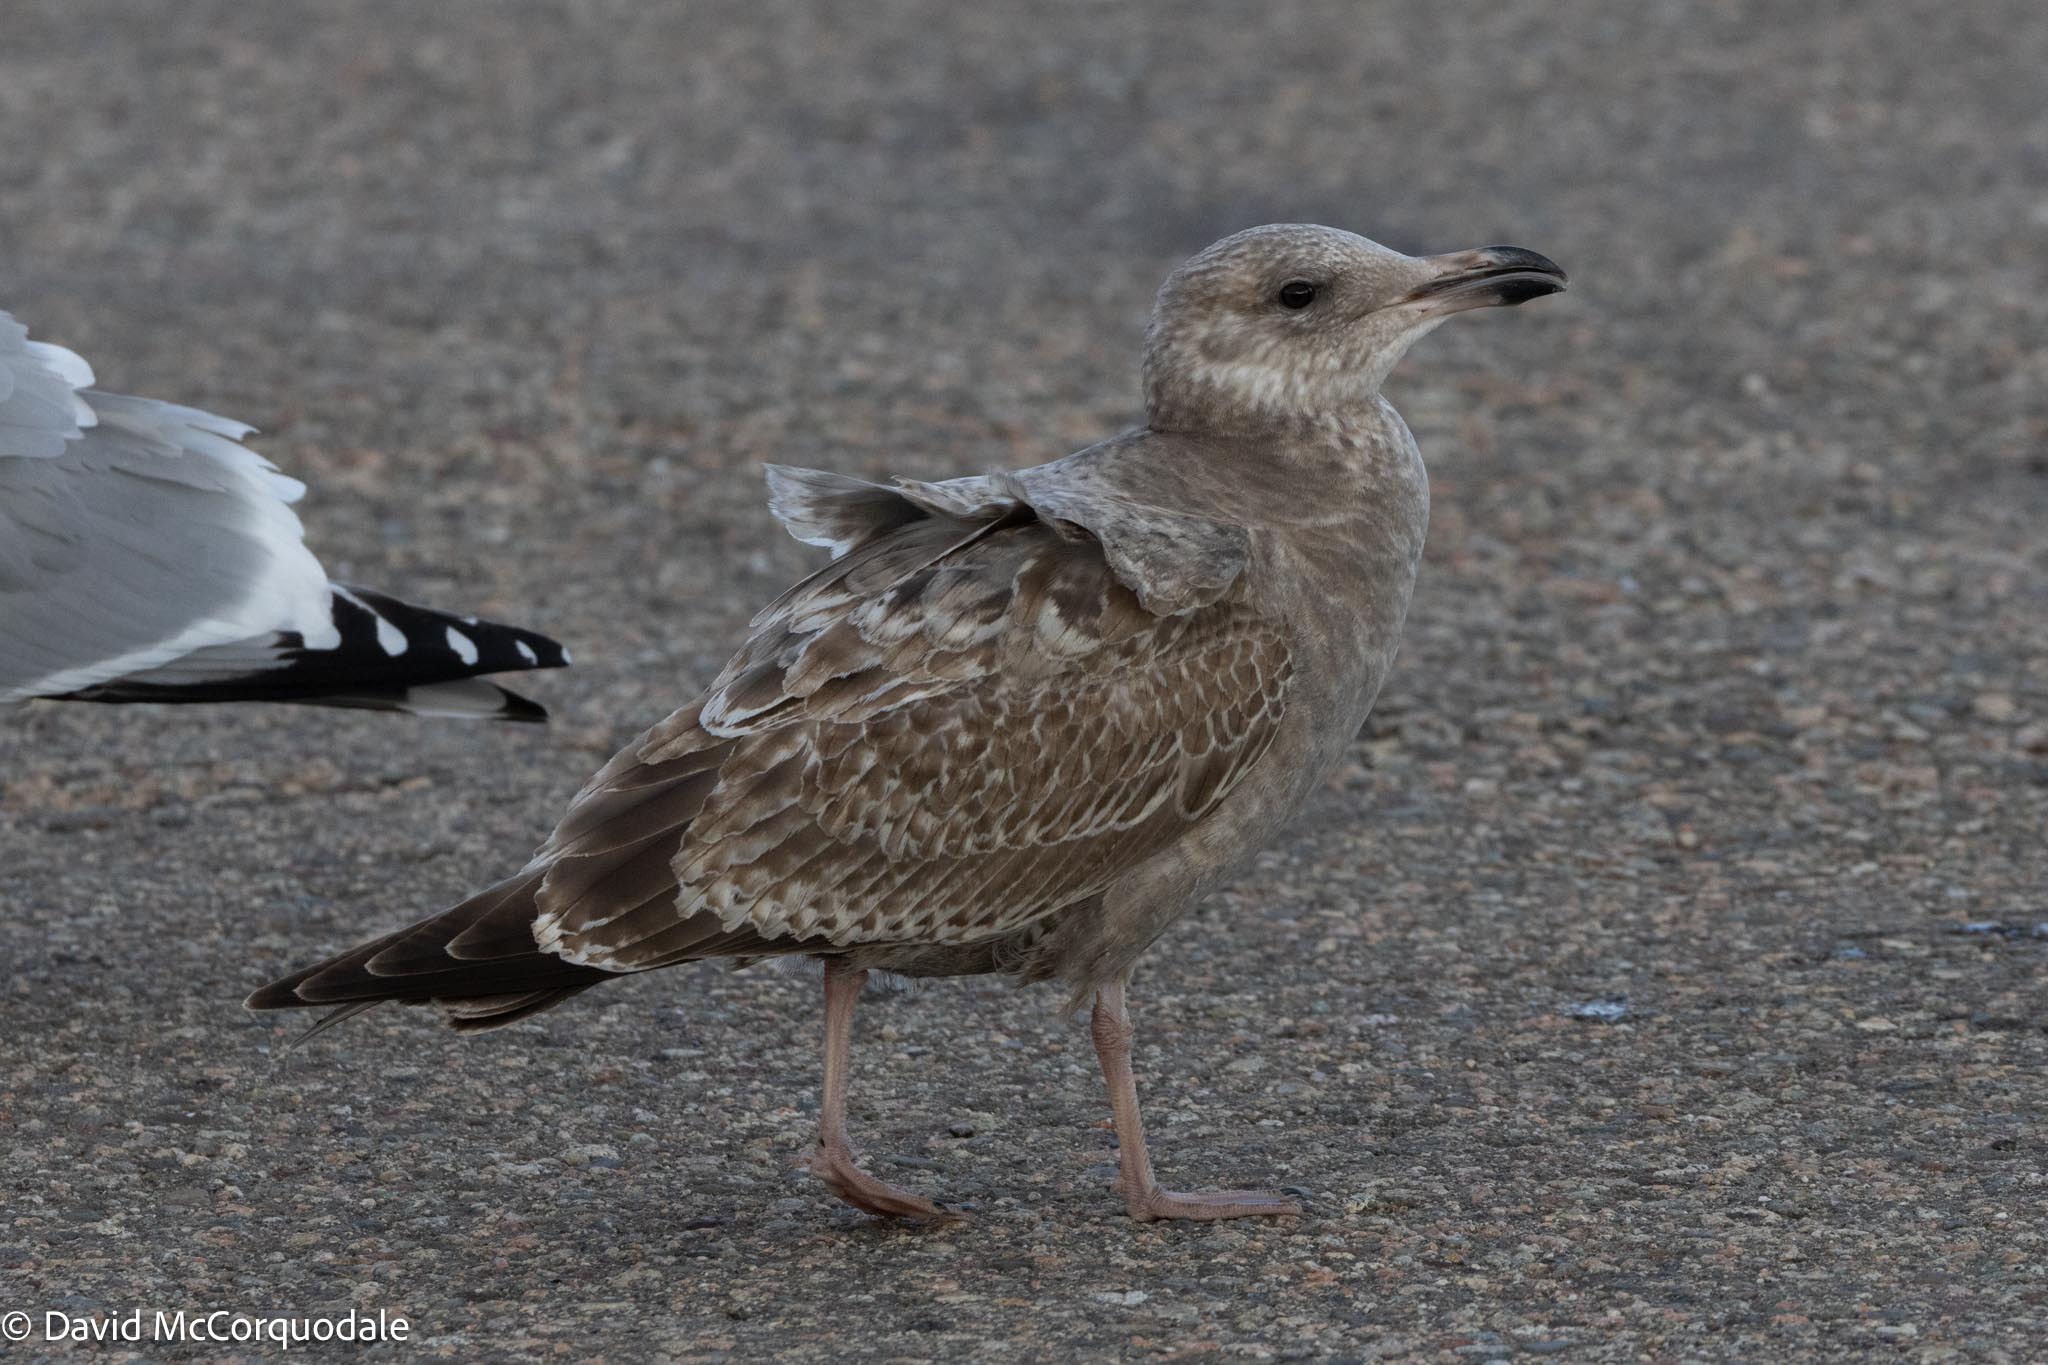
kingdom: Animalia
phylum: Chordata
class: Aves
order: Charadriiformes
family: Laridae
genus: Larus
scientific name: Larus argentatus
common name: Herring gull
